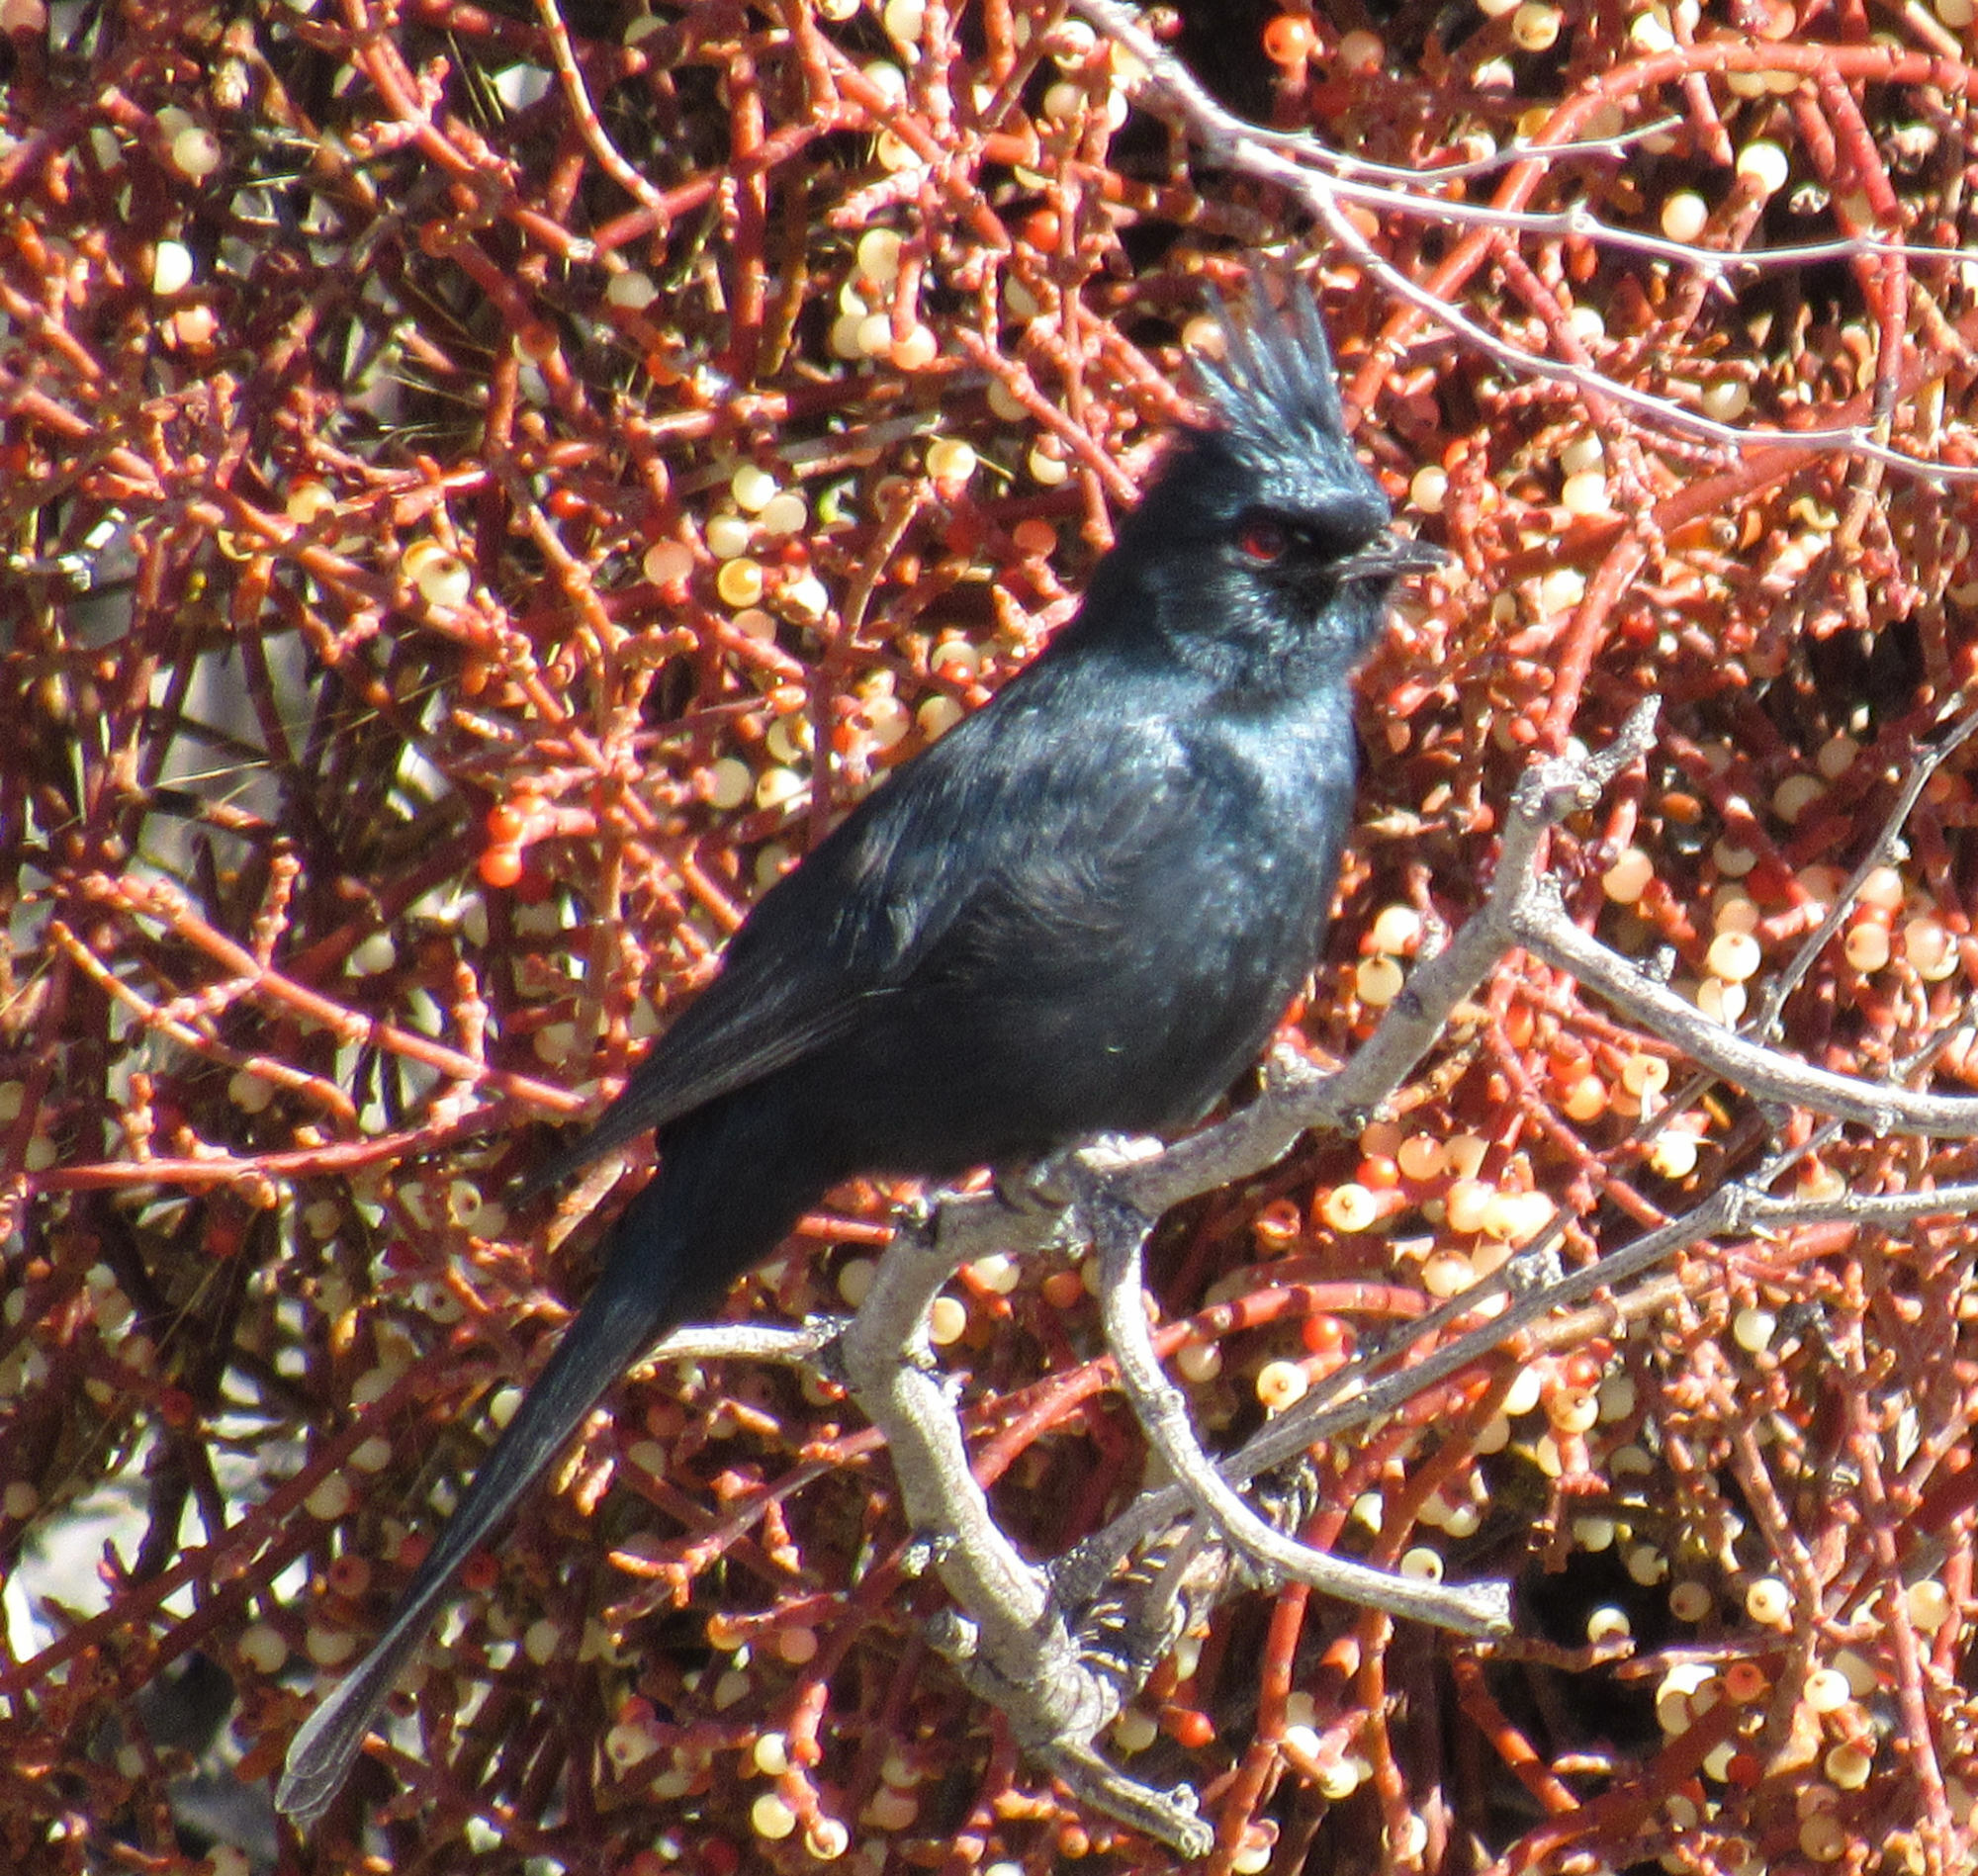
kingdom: Animalia
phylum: Chordata
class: Aves
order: Passeriformes
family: Ptilogonatidae
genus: Phainopepla
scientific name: Phainopepla nitens
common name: Phainopepla
